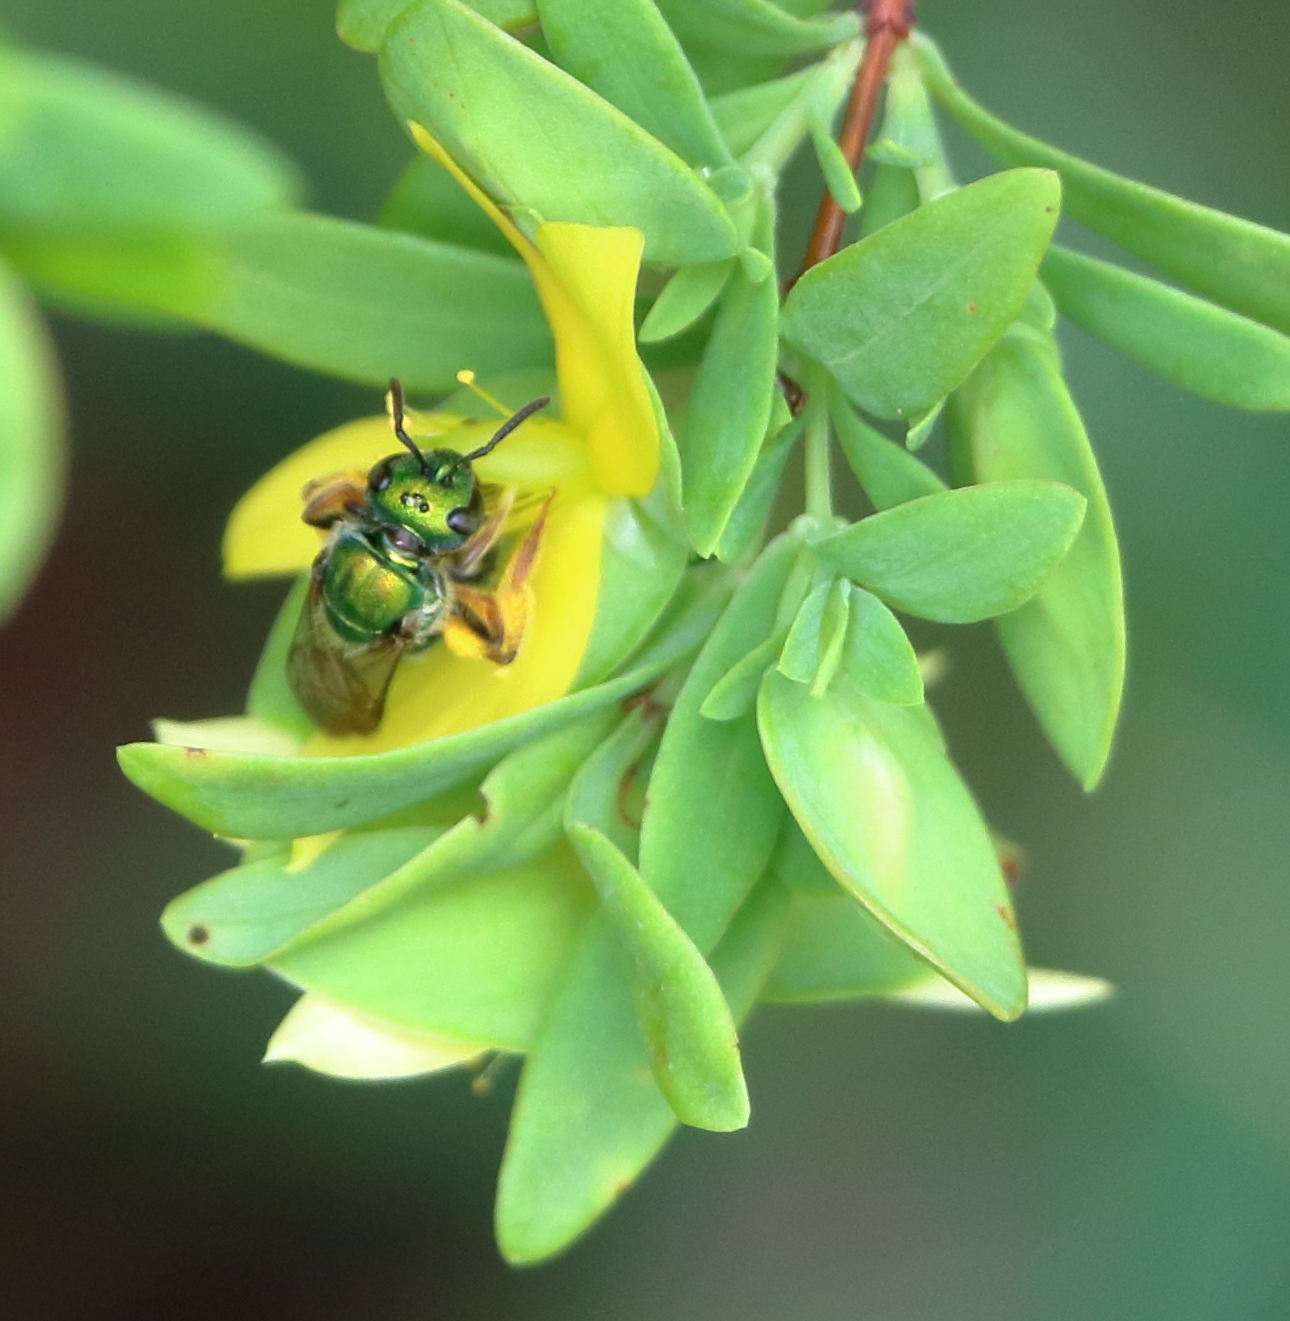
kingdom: Animalia
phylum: Arthropoda
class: Insecta
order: Hymenoptera
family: Halictidae
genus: Augochlora
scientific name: Augochlora pura
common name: Pure green sweat bee
